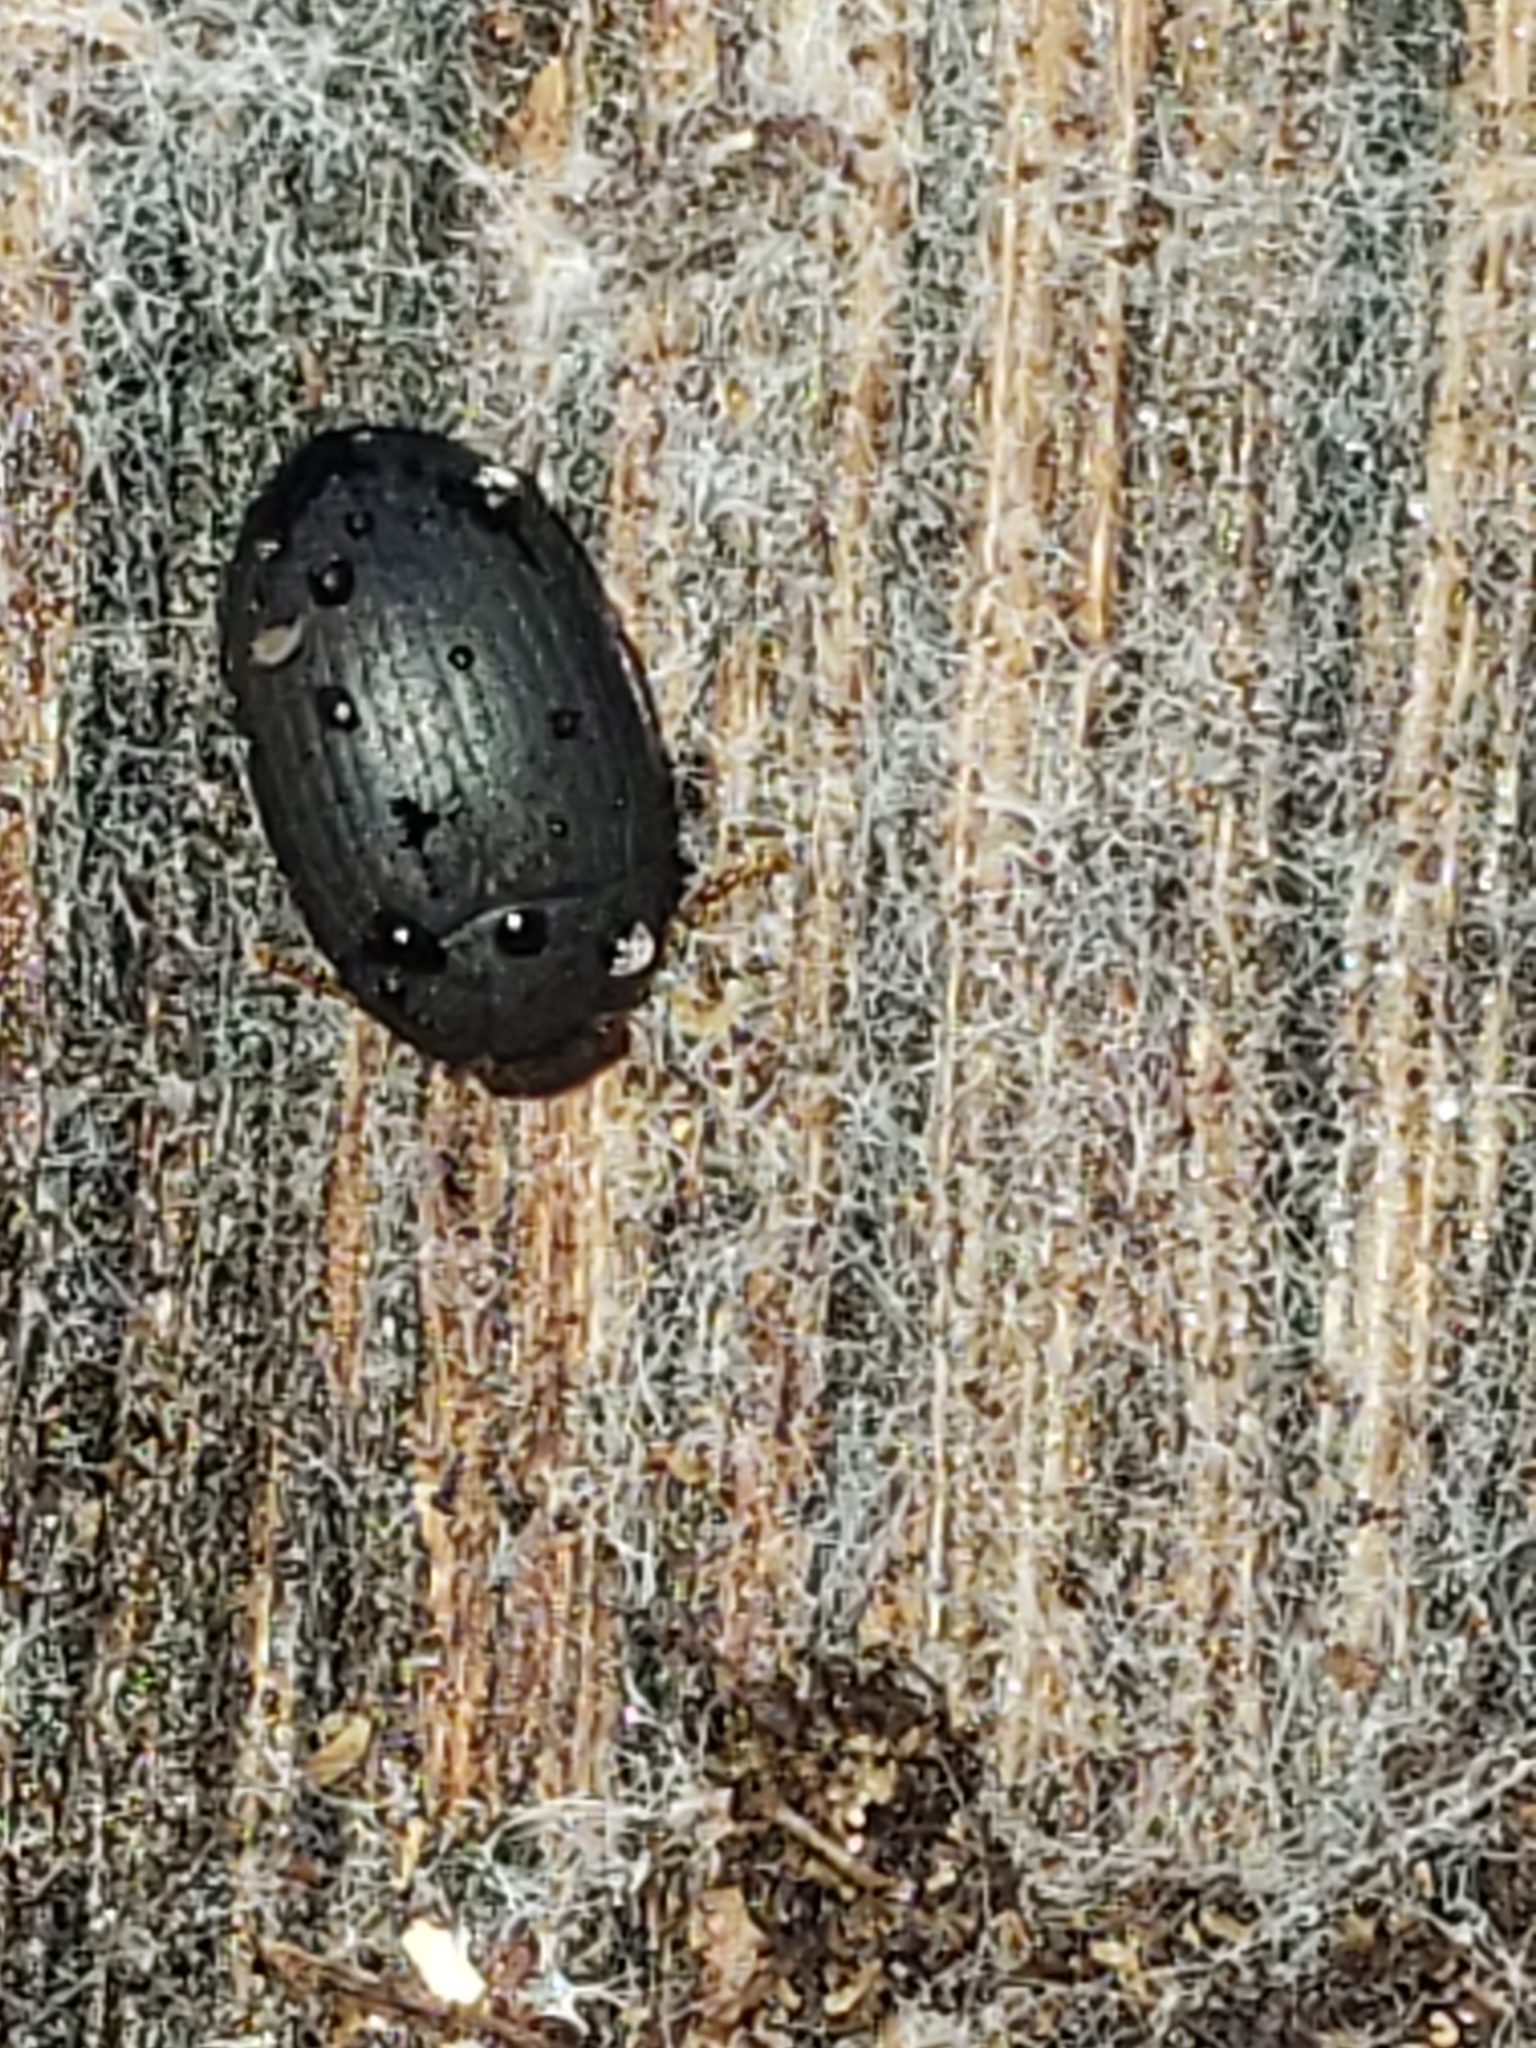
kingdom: Animalia
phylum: Arthropoda
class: Insecta
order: Coleoptera
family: Tenebrionidae
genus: Platydema
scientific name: Platydema ruficornis
